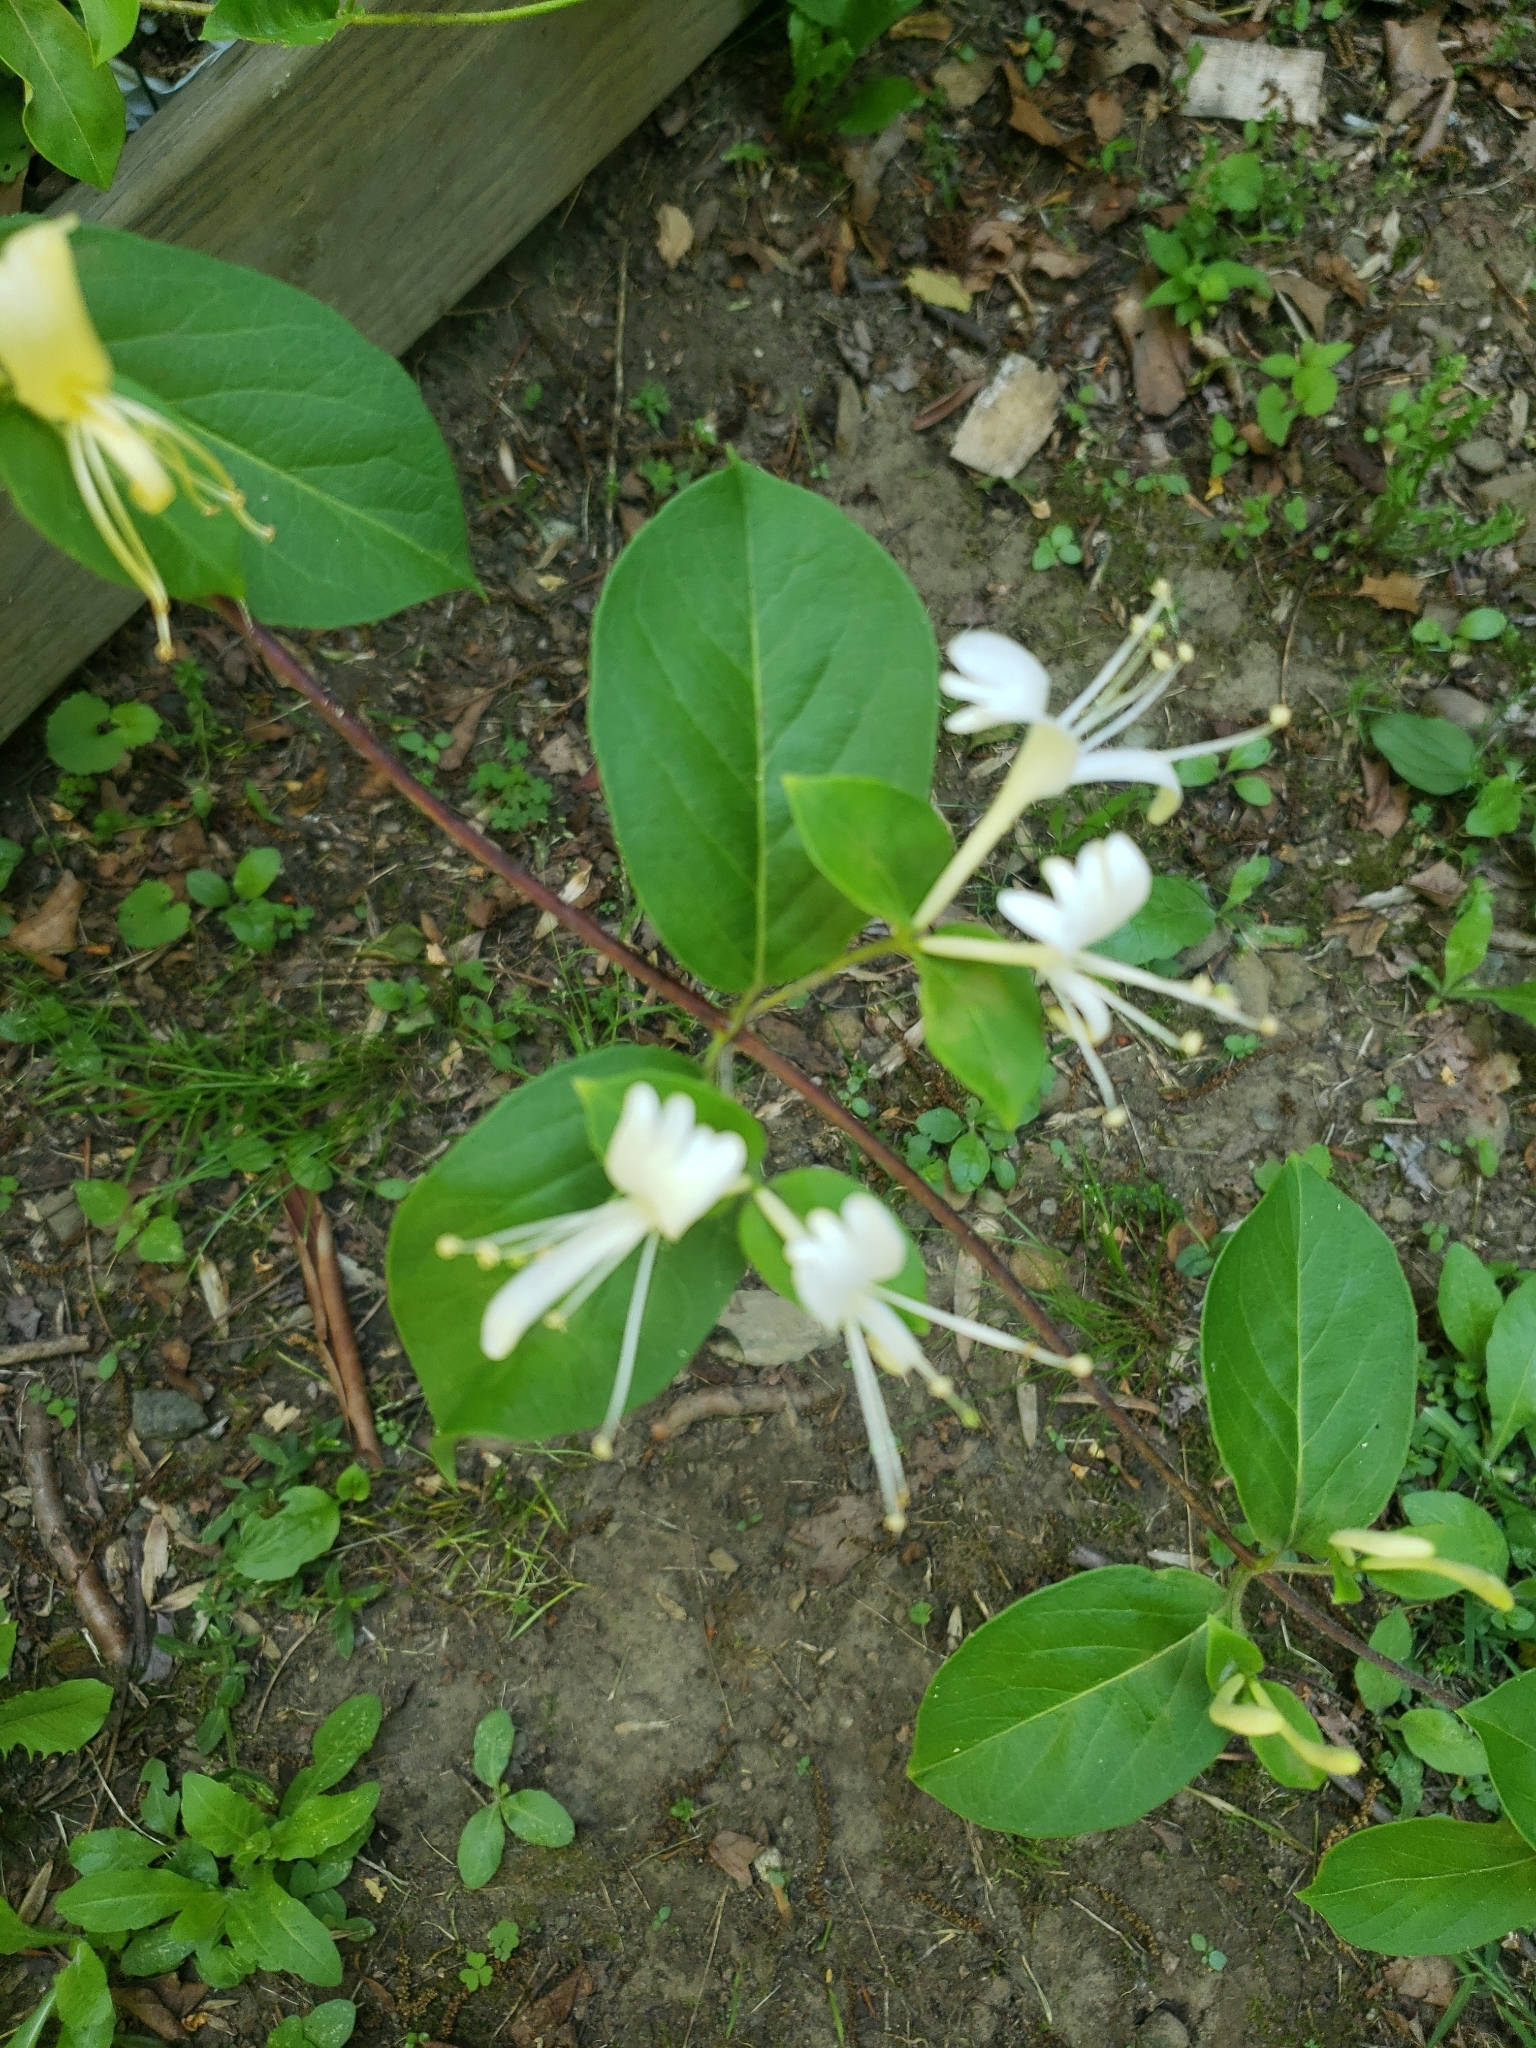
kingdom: Plantae
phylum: Tracheophyta
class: Magnoliopsida
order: Dipsacales
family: Caprifoliaceae
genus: Lonicera
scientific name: Lonicera japonica
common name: Japanese honeysuckle
